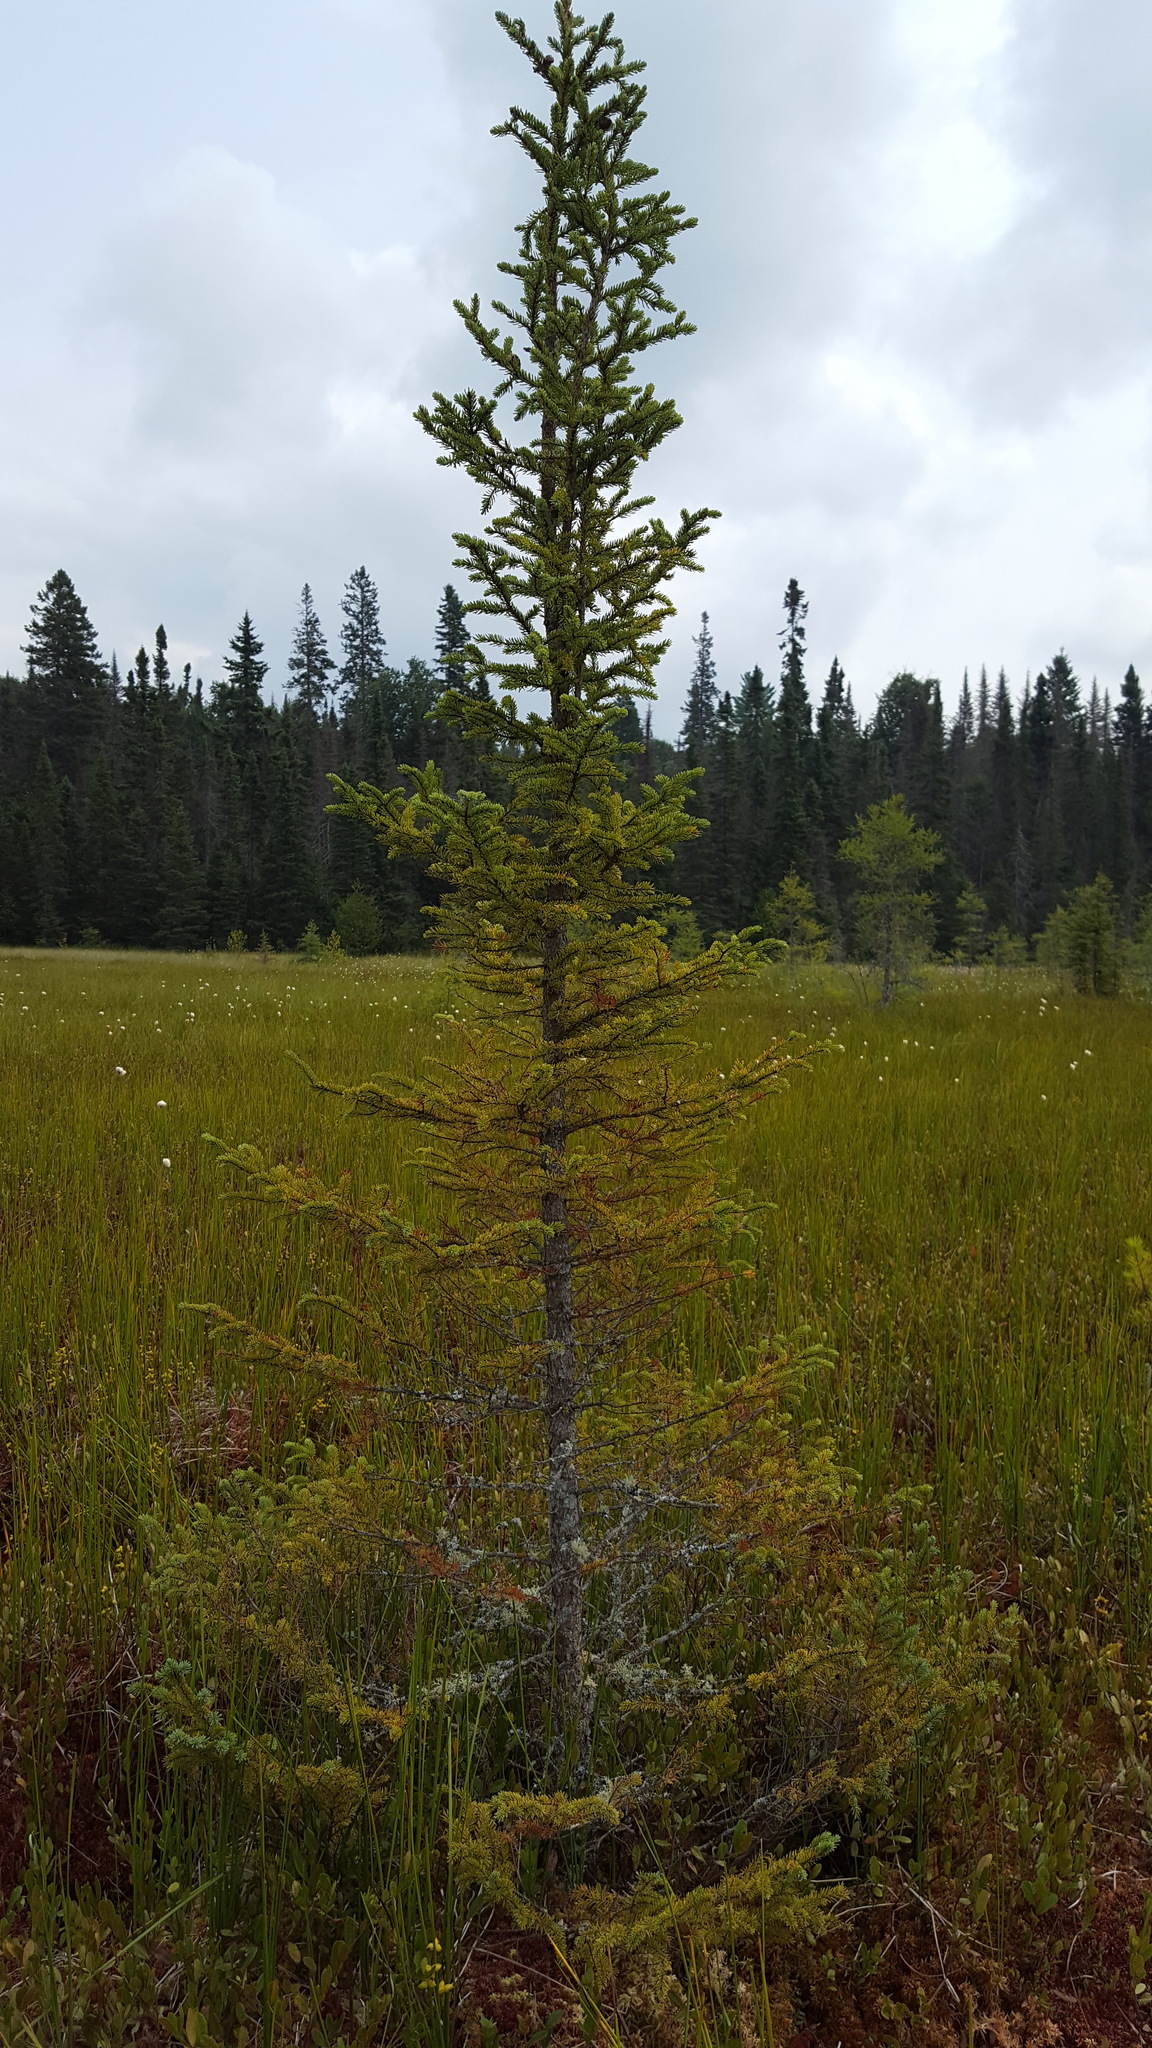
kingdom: Plantae
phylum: Tracheophyta
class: Pinopsida
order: Pinales
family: Pinaceae
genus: Picea
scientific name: Picea mariana
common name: Black spruce
